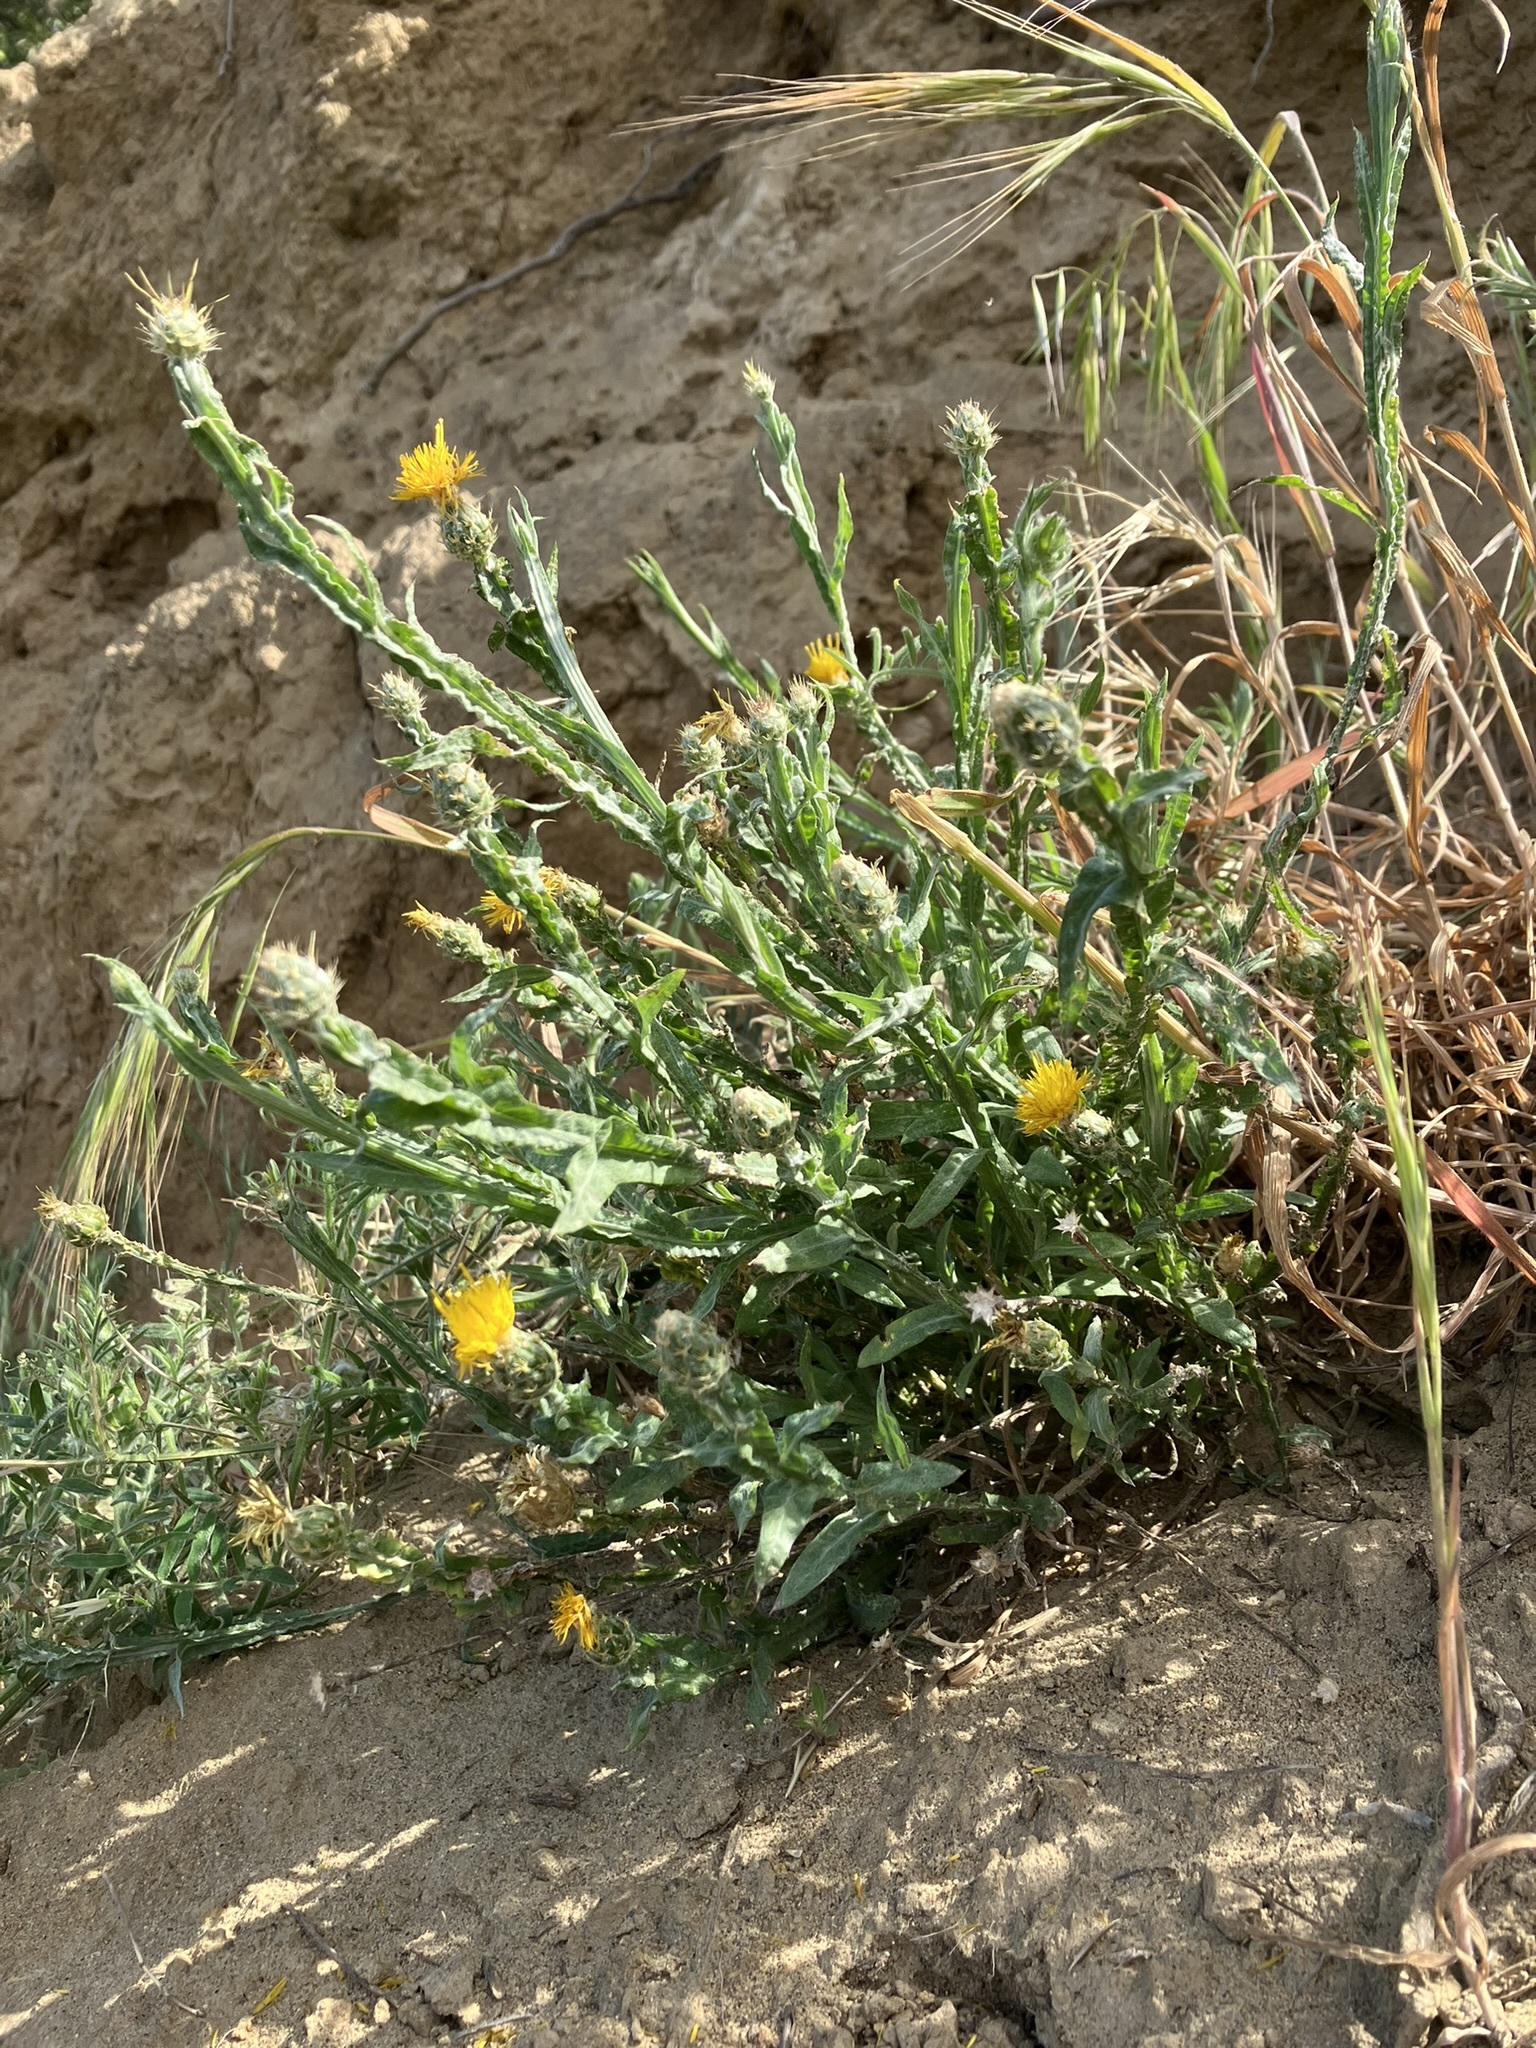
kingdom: Plantae
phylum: Tracheophyta
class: Magnoliopsida
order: Asterales
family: Asteraceae
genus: Centaurea
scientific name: Centaurea melitensis
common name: Maltese star-thistle
